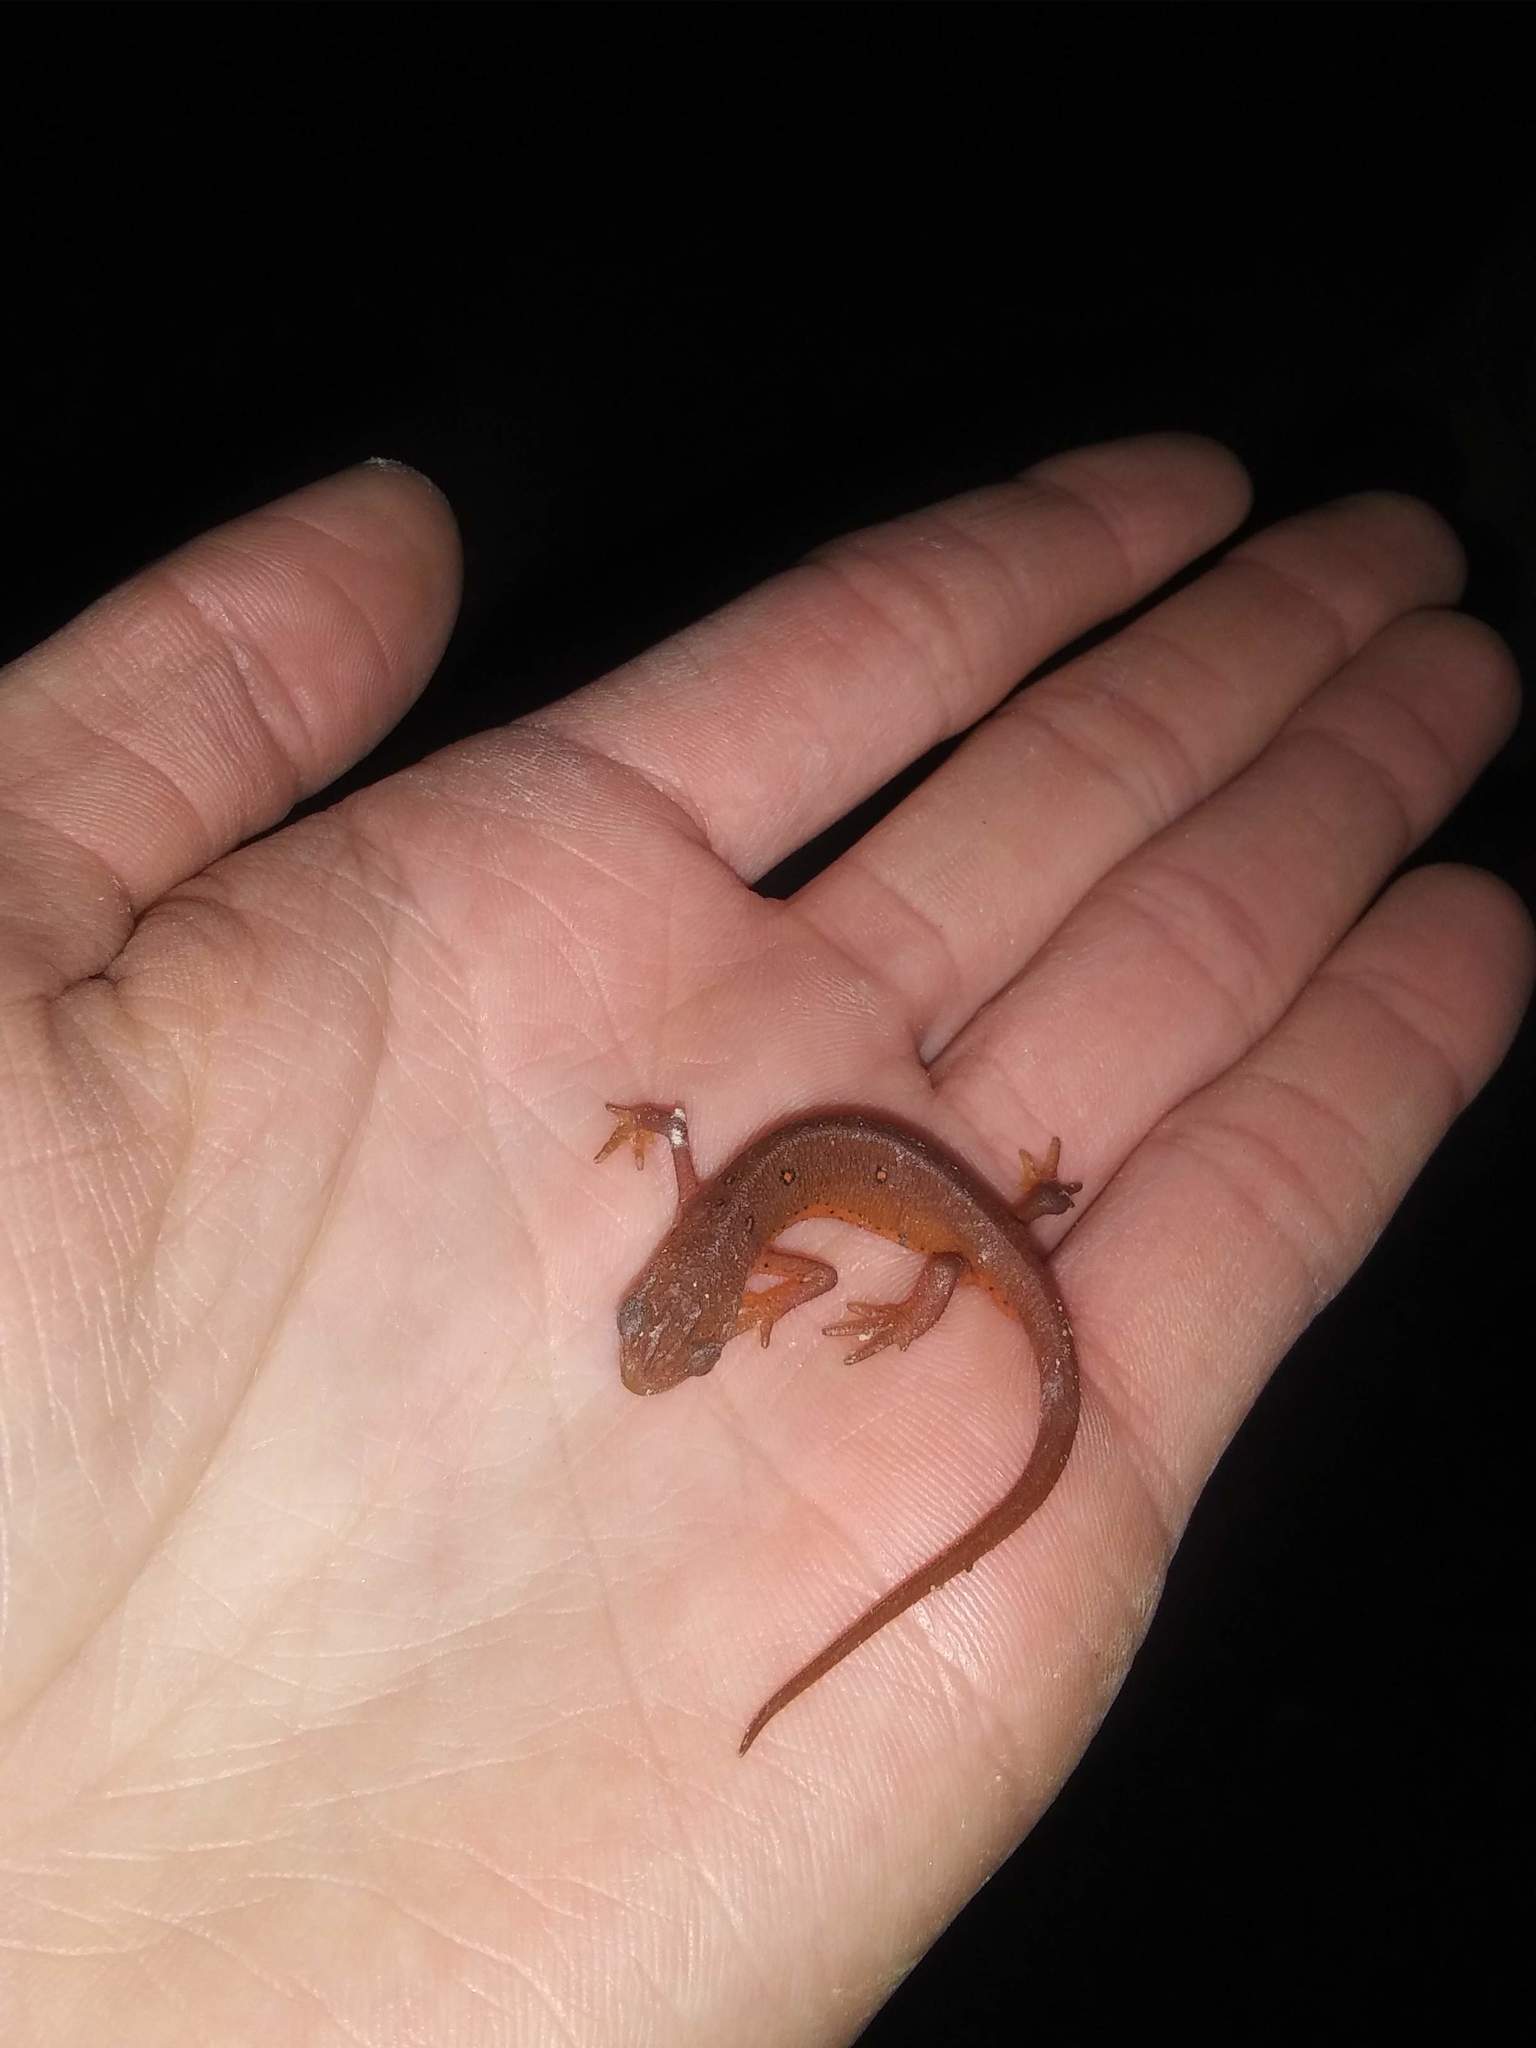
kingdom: Animalia
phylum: Chordata
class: Amphibia
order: Caudata
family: Salamandridae
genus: Notophthalmus
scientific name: Notophthalmus viridescens
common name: Eastern newt
